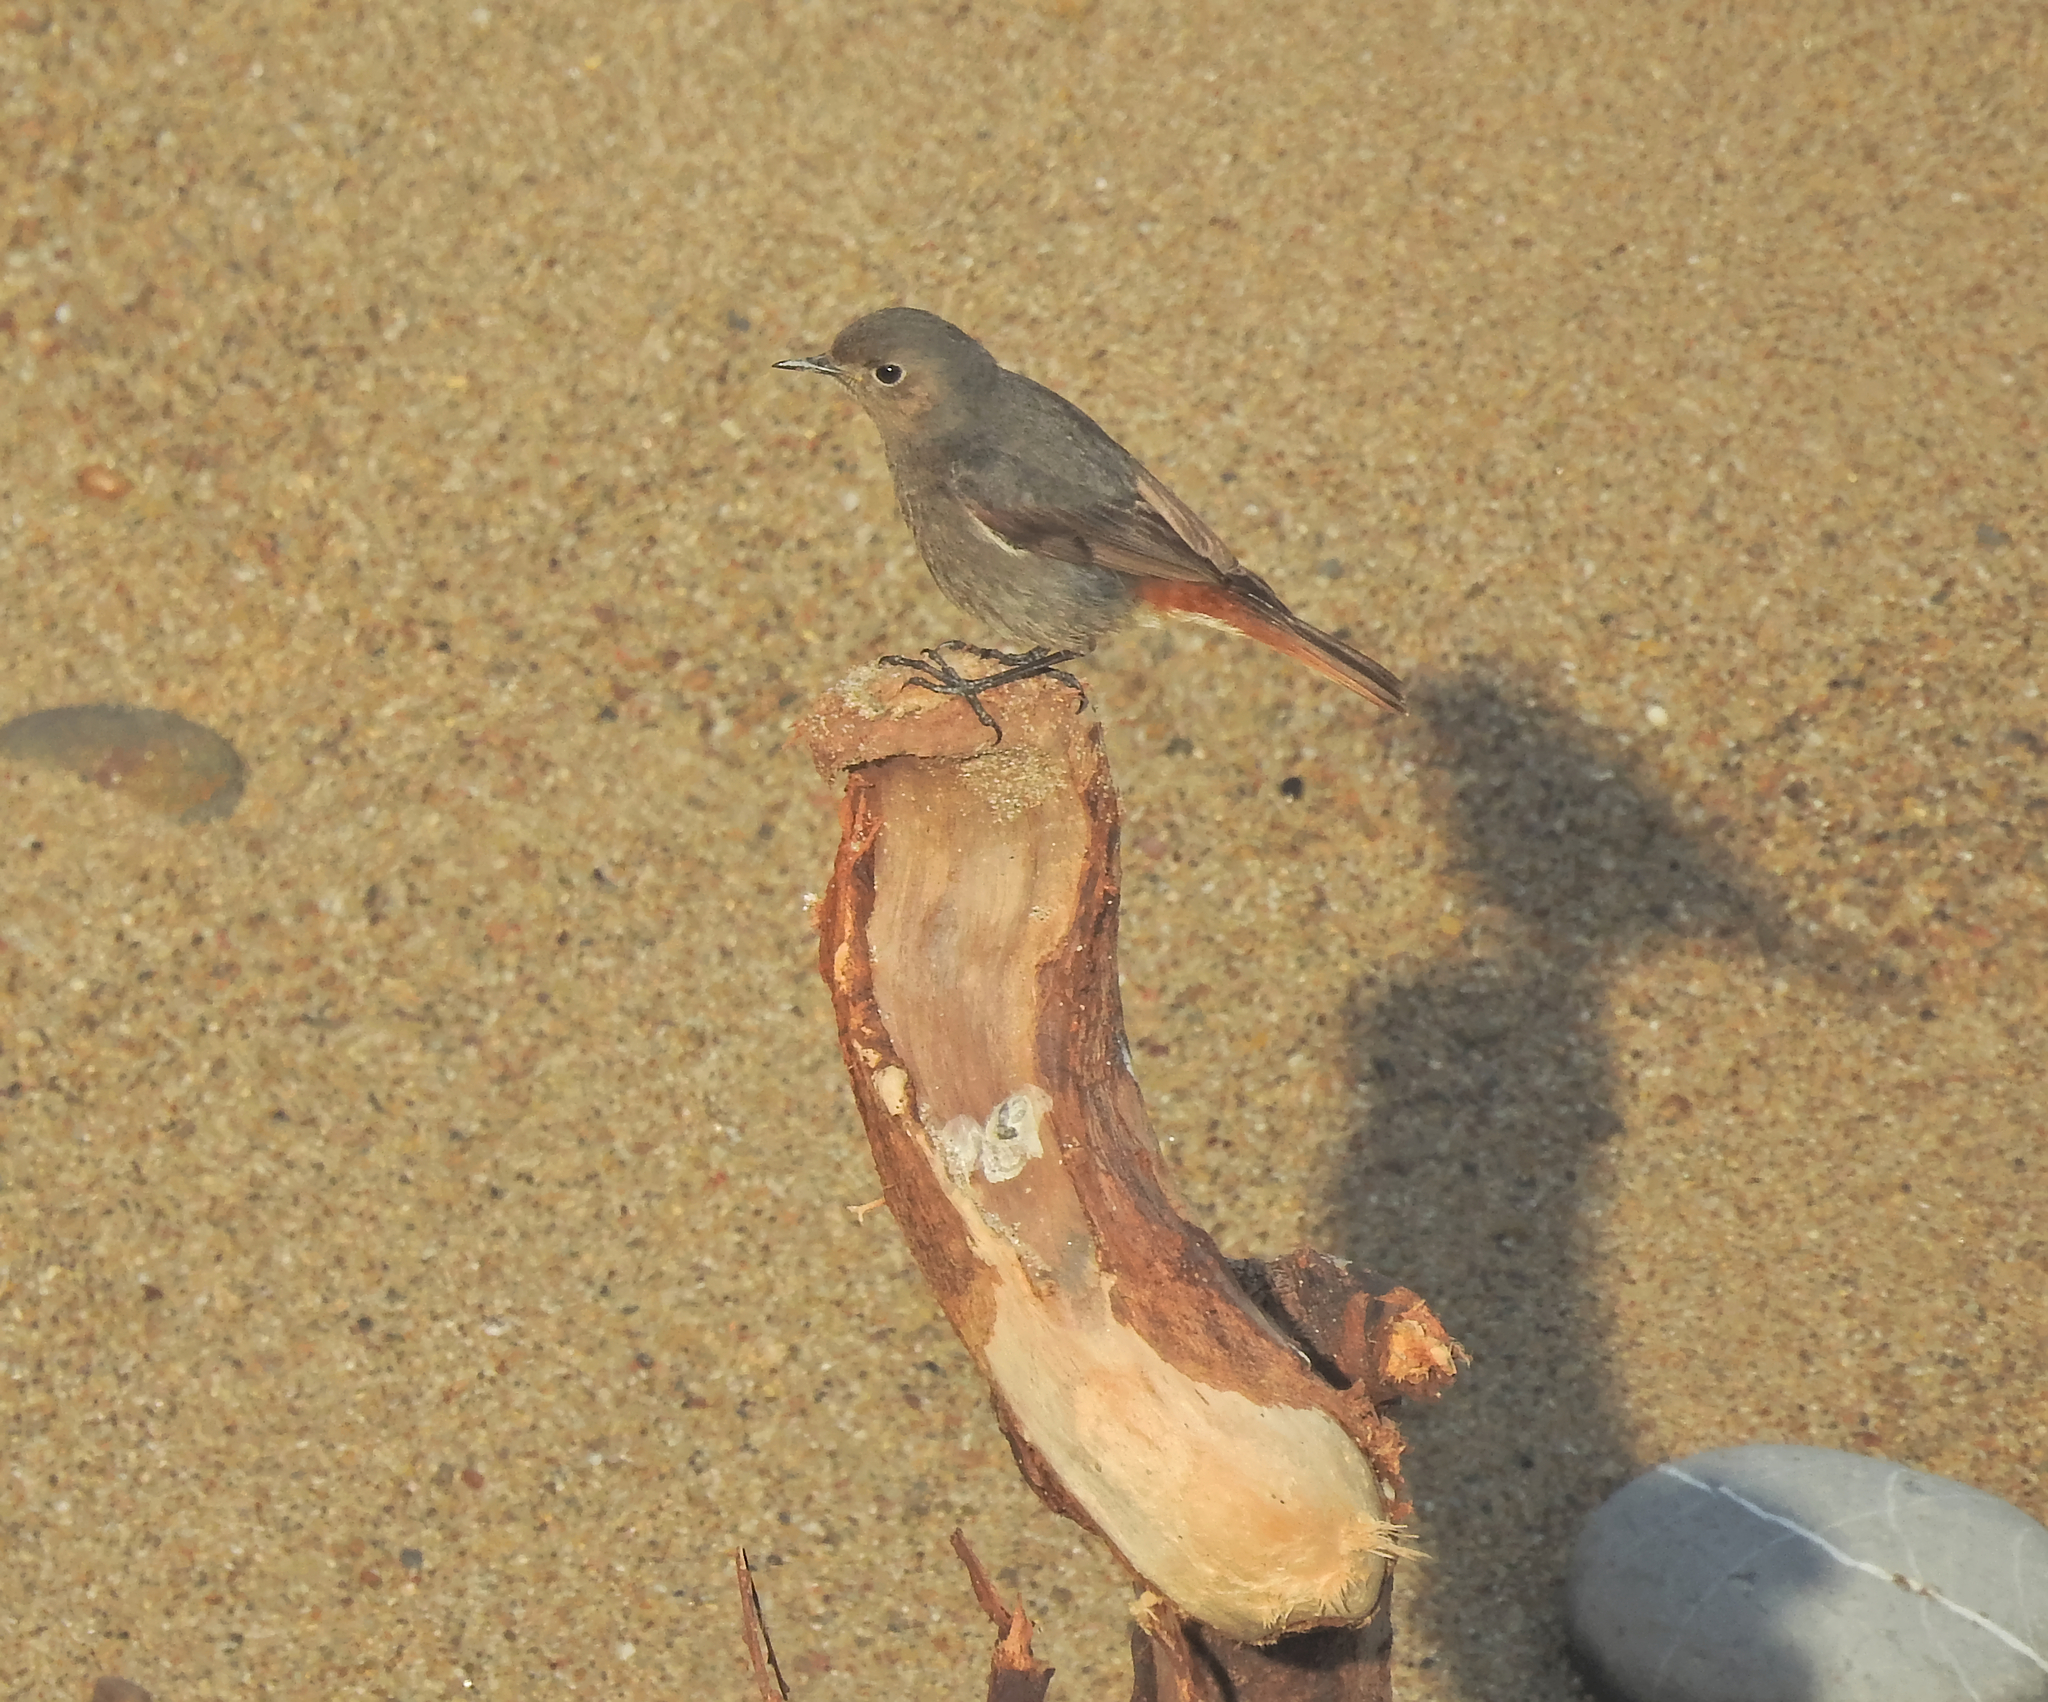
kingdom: Animalia
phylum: Chordata
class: Aves
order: Passeriformes
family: Muscicapidae
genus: Phoenicurus
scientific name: Phoenicurus ochruros
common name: Black redstart
